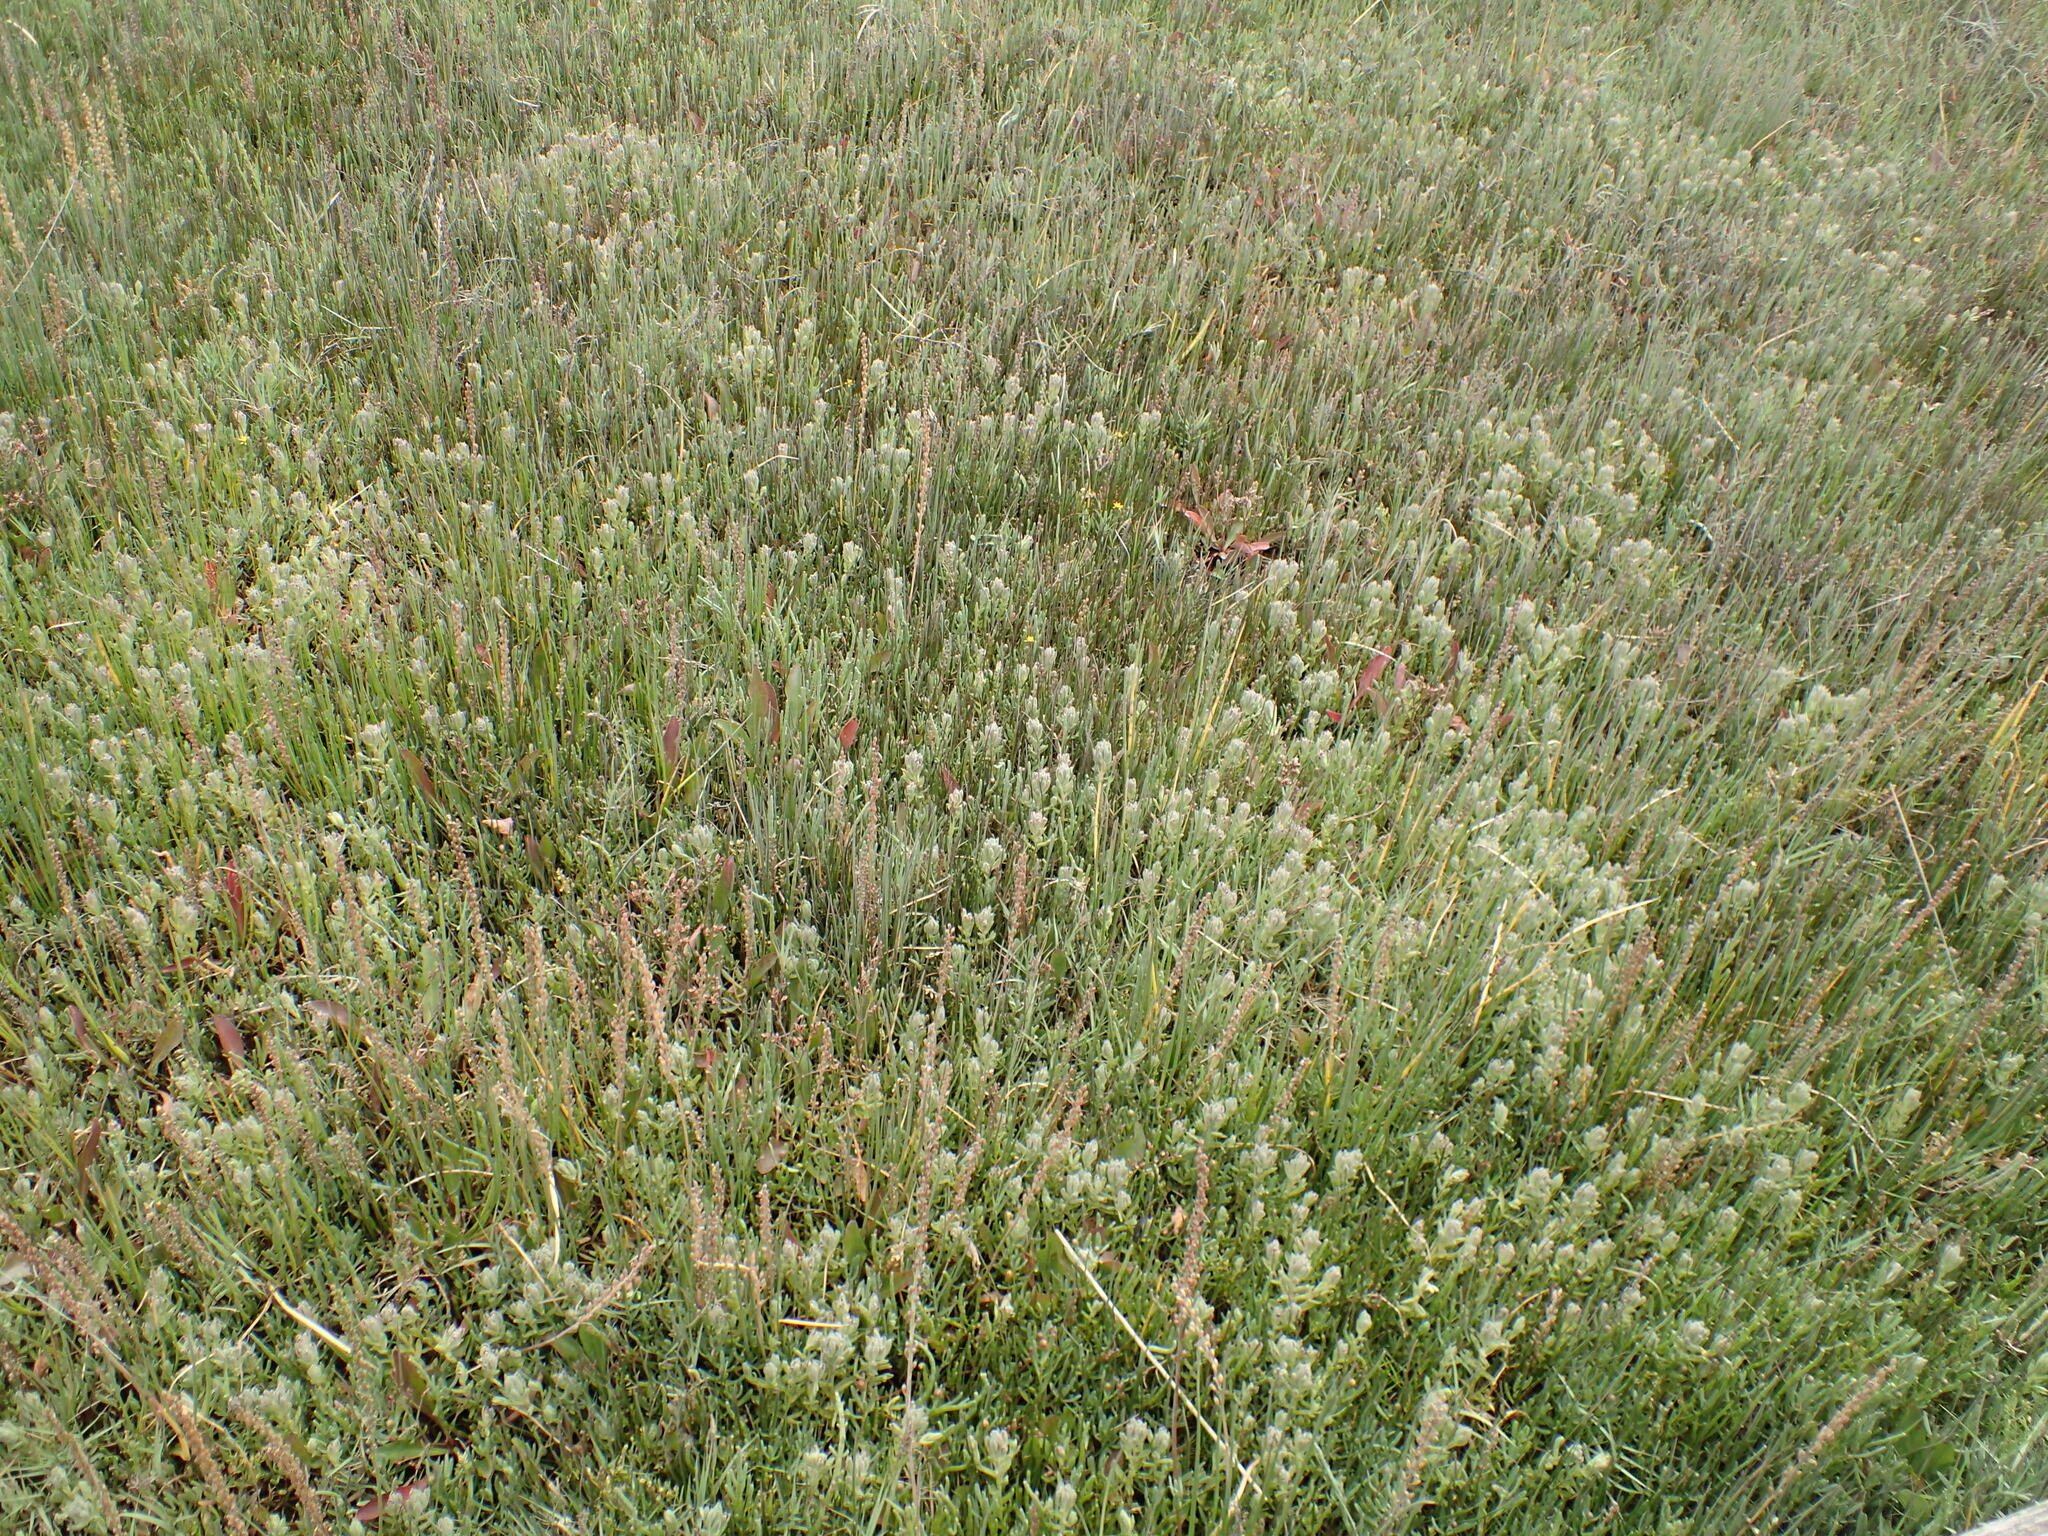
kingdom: Plantae
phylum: Tracheophyta
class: Magnoliopsida
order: Lamiales
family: Orobanchaceae
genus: Chloropyron
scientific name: Chloropyron maritimum
